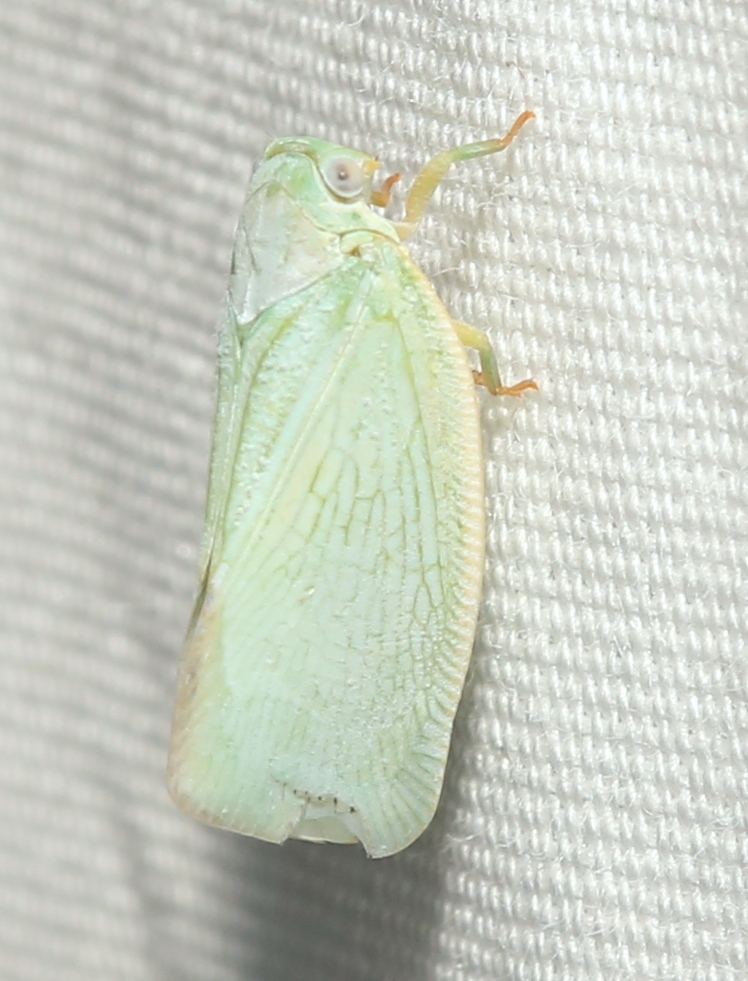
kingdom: Animalia
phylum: Arthropoda
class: Insecta
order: Hemiptera
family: Flatidae
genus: Flatormenis
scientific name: Flatormenis proxima
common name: Northern flatid planthopper
